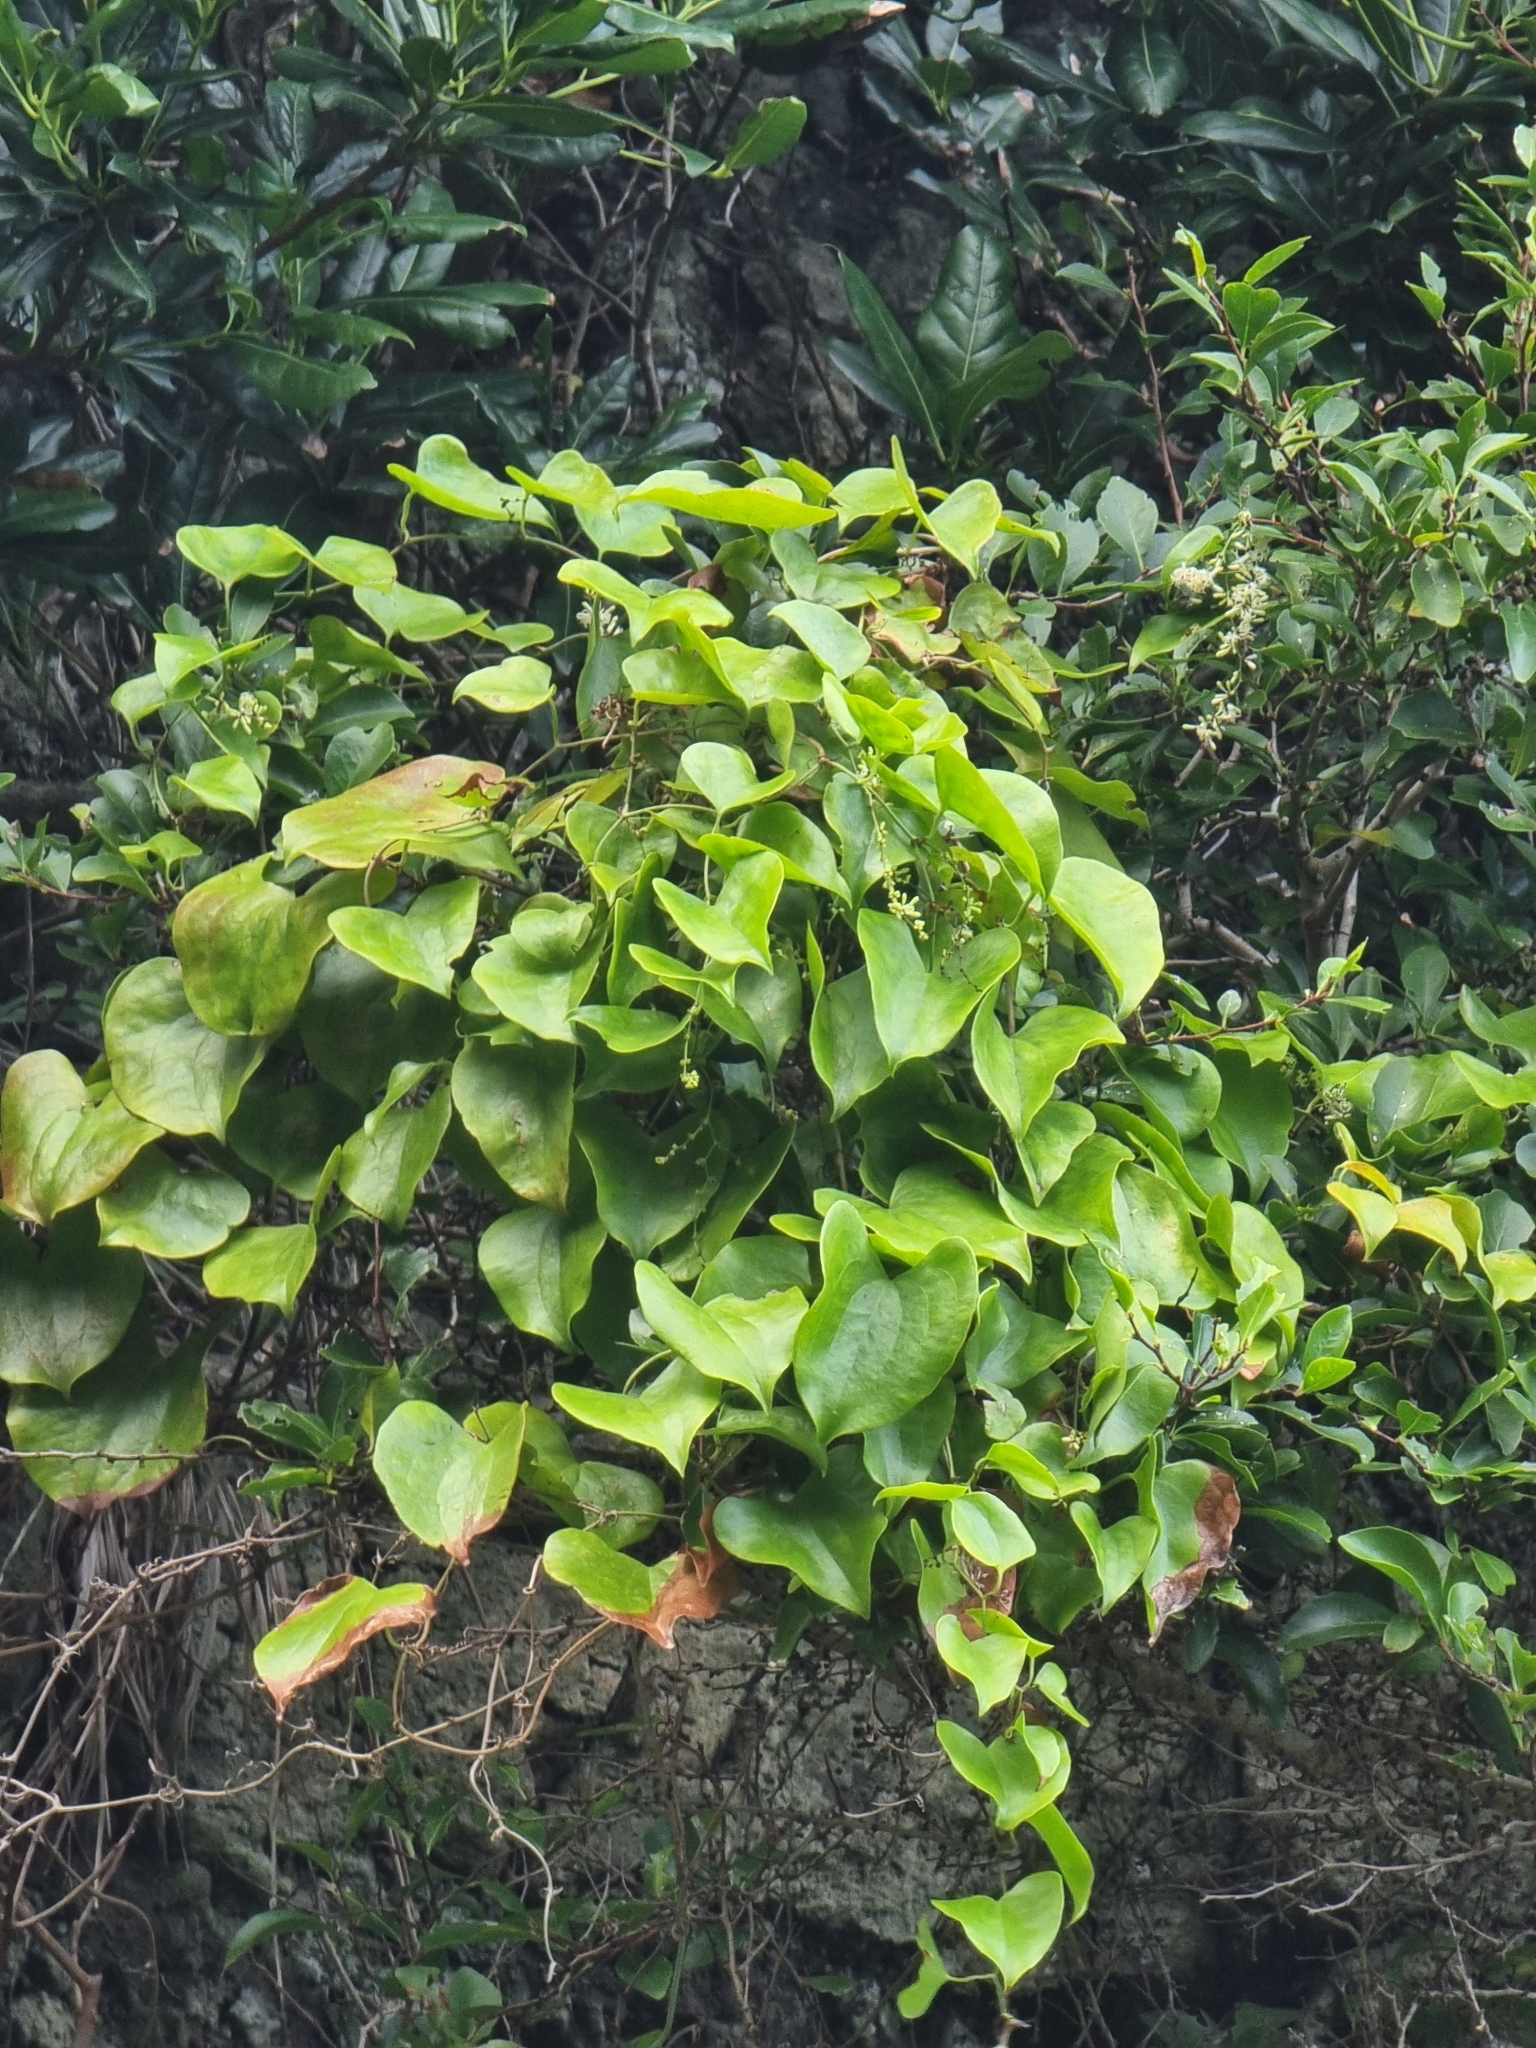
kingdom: Plantae
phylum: Tracheophyta
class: Liliopsida
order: Liliales
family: Smilacaceae
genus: Smilax
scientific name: Smilax aspera
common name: Common smilax
